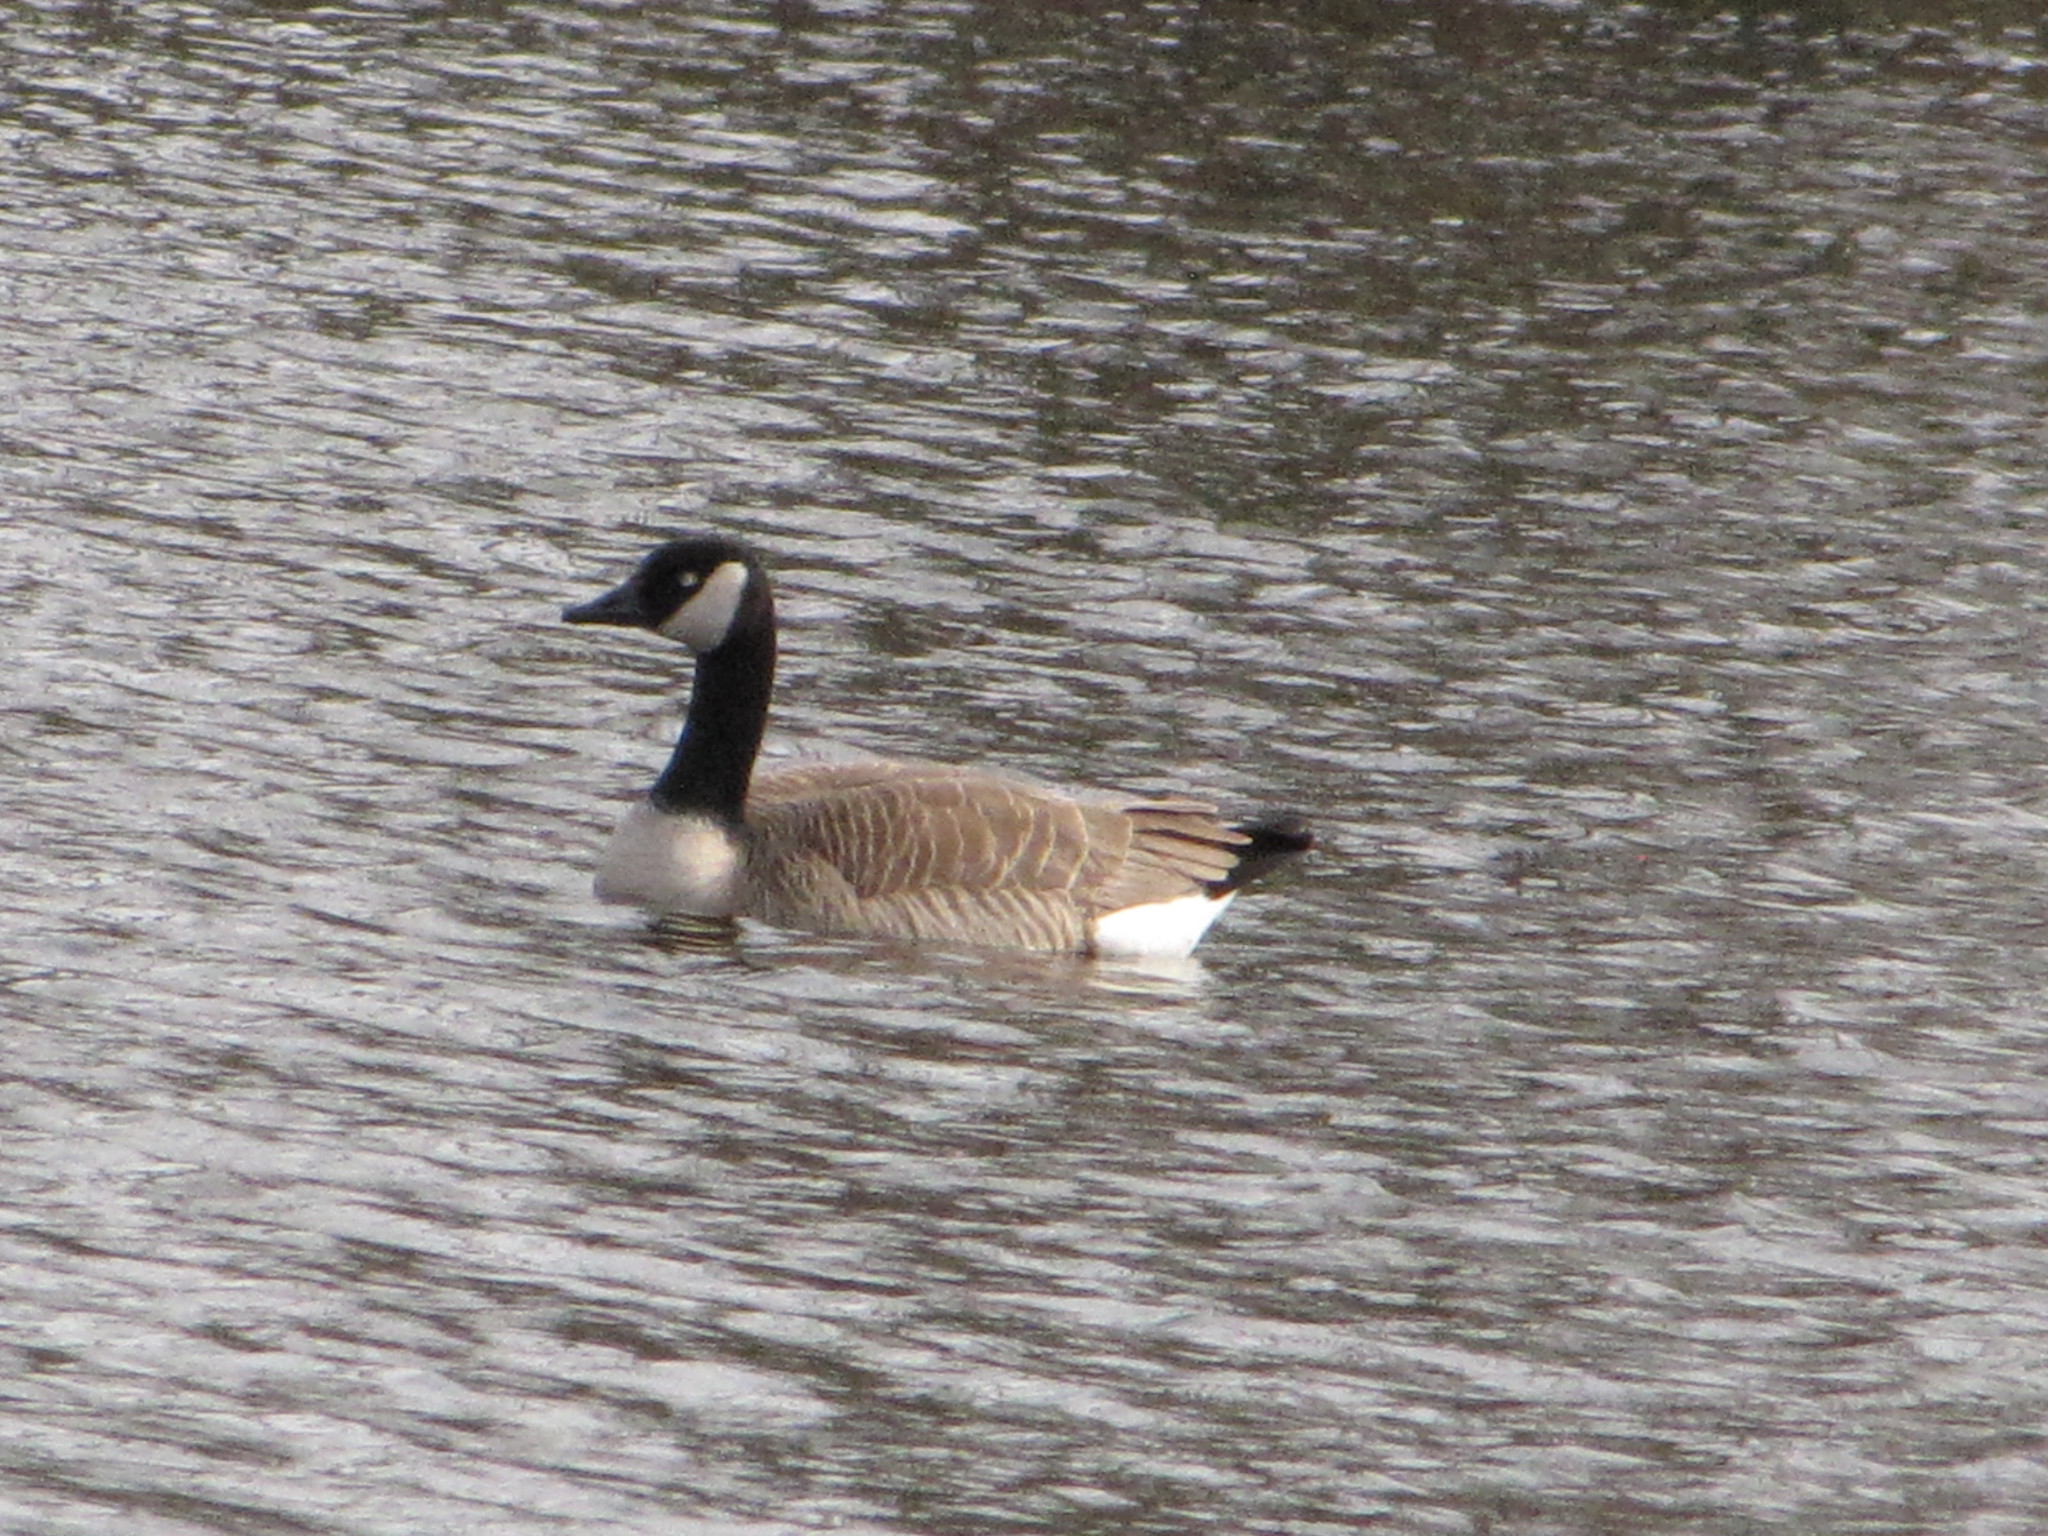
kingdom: Animalia
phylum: Chordata
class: Aves
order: Anseriformes
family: Anatidae
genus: Branta
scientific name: Branta canadensis
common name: Canada goose
